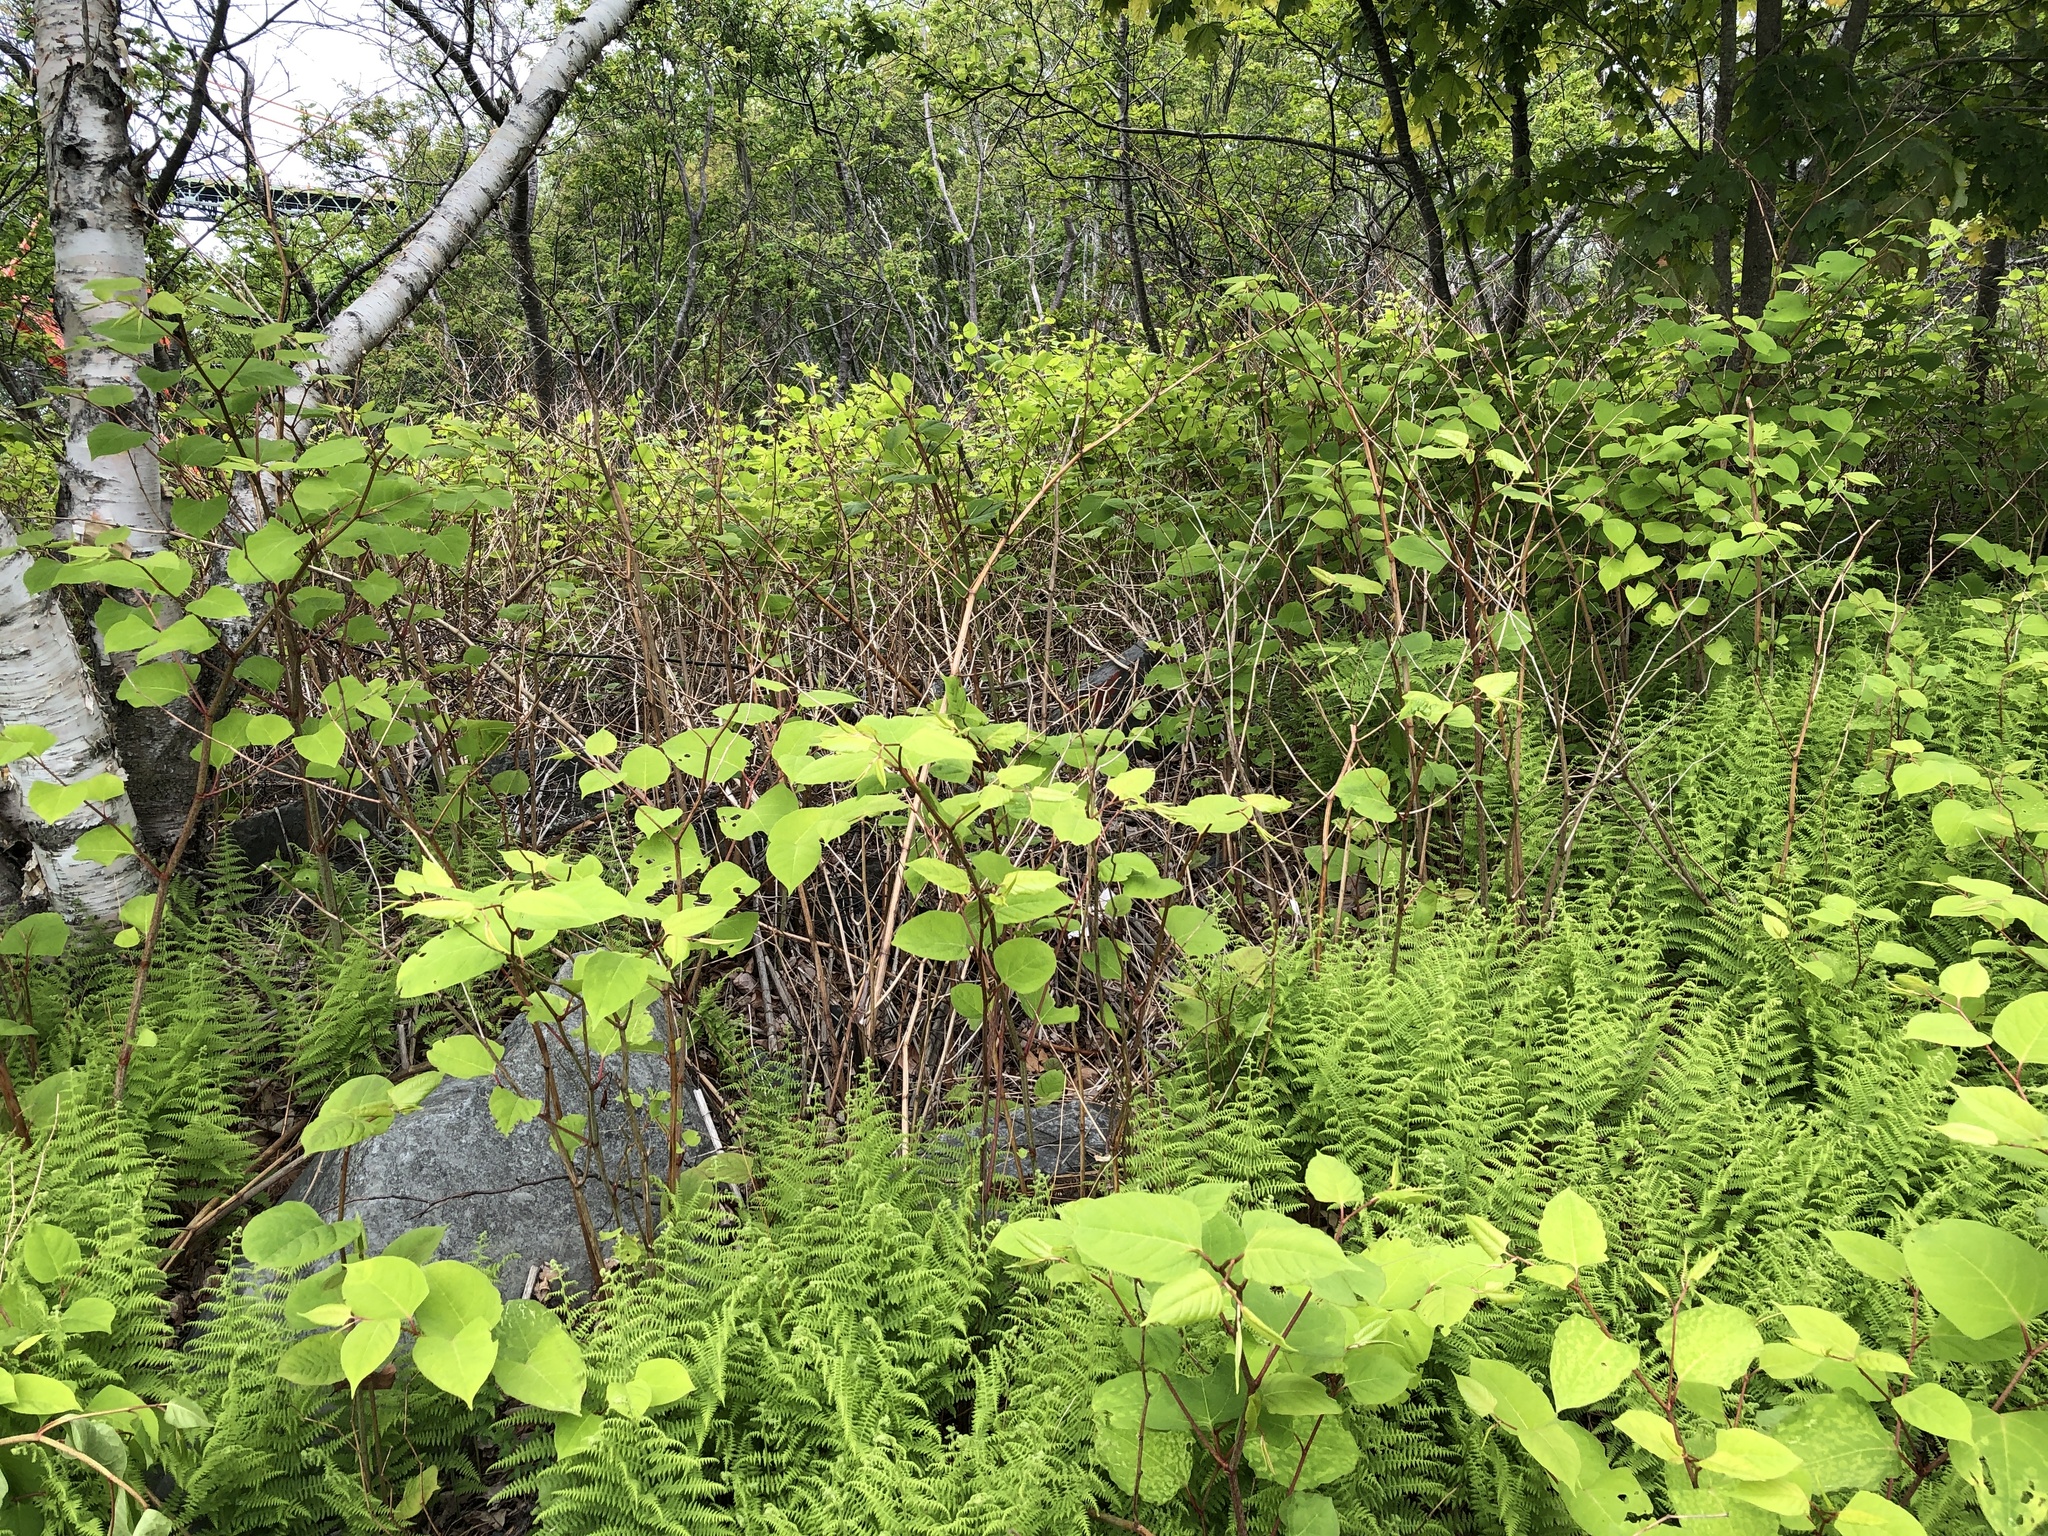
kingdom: Plantae
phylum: Tracheophyta
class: Magnoliopsida
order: Caryophyllales
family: Polygonaceae
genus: Reynoutria
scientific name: Reynoutria japonica
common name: Japanese knotweed
